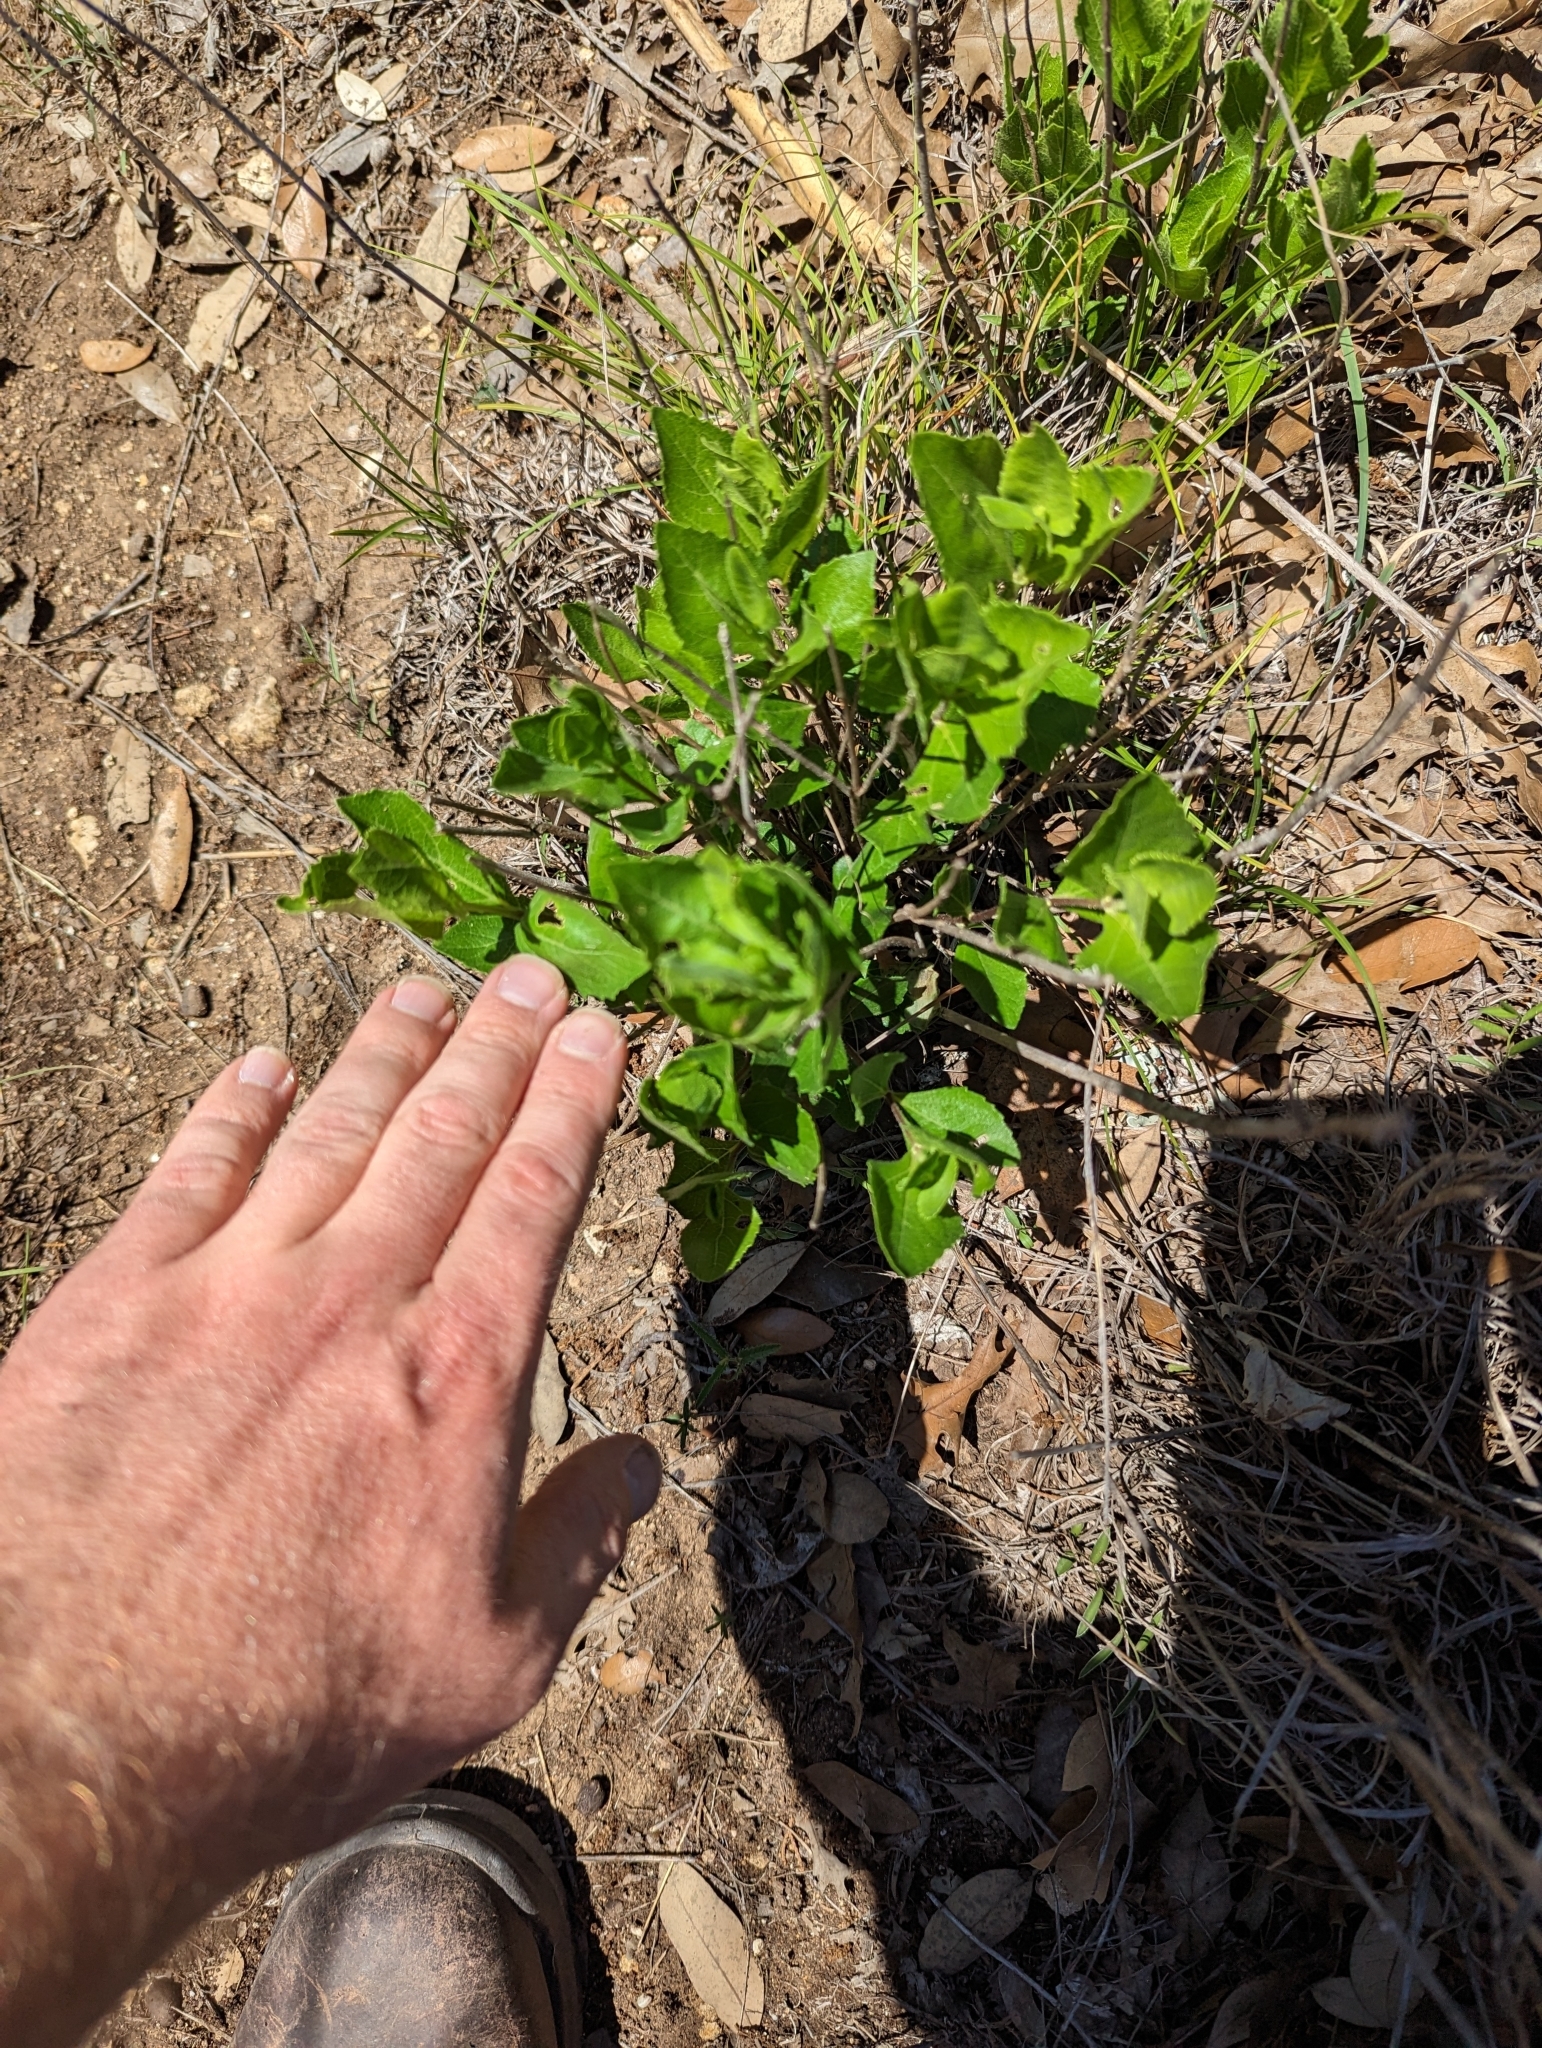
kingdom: Plantae
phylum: Tracheophyta
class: Magnoliopsida
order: Asterales
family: Asteraceae
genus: Verbesina
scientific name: Verbesina lindheimeri
